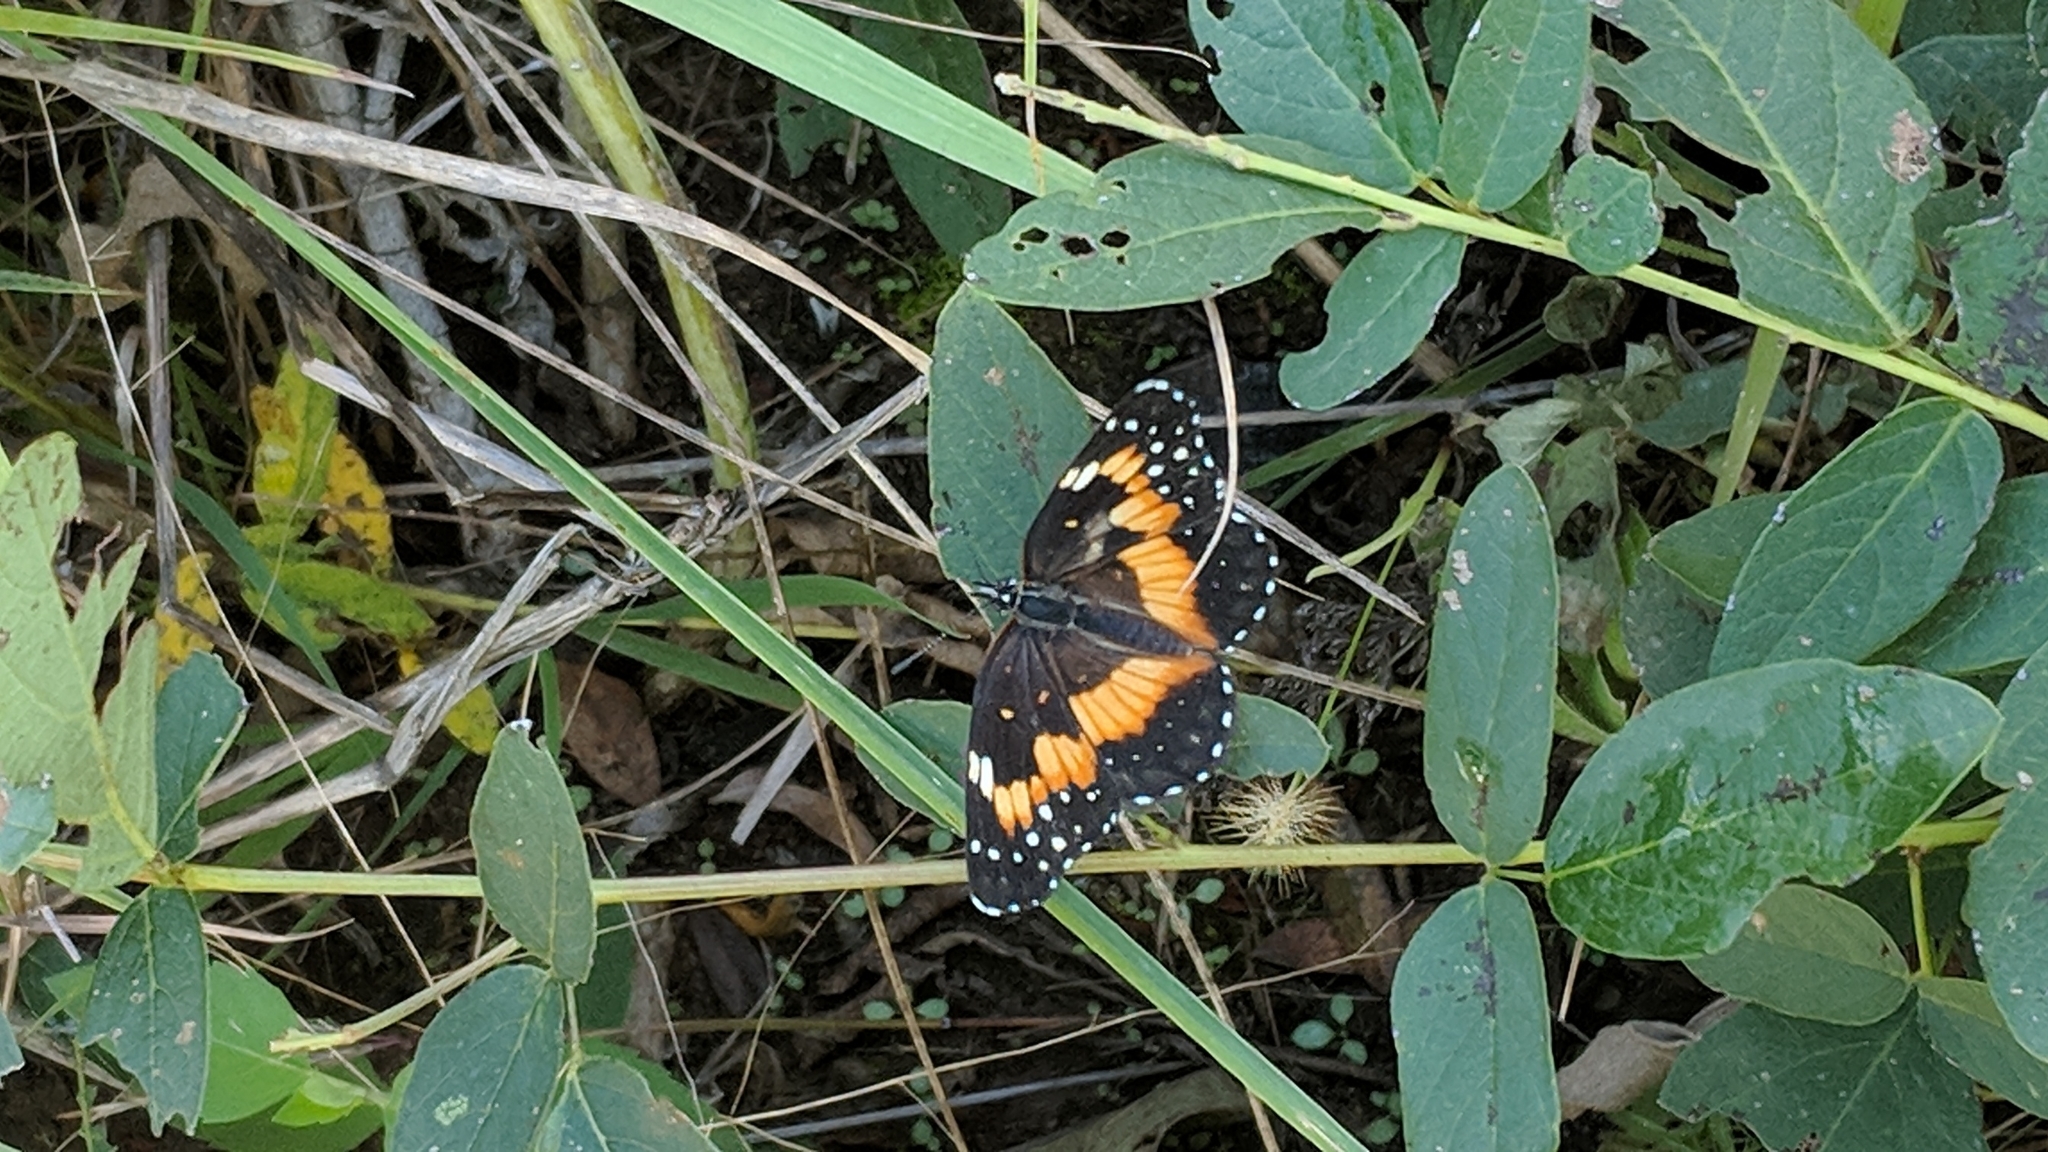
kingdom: Animalia
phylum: Arthropoda
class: Insecta
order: Lepidoptera
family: Nymphalidae
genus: Chlosyne
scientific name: Chlosyne lacinia
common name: Bordered patch
